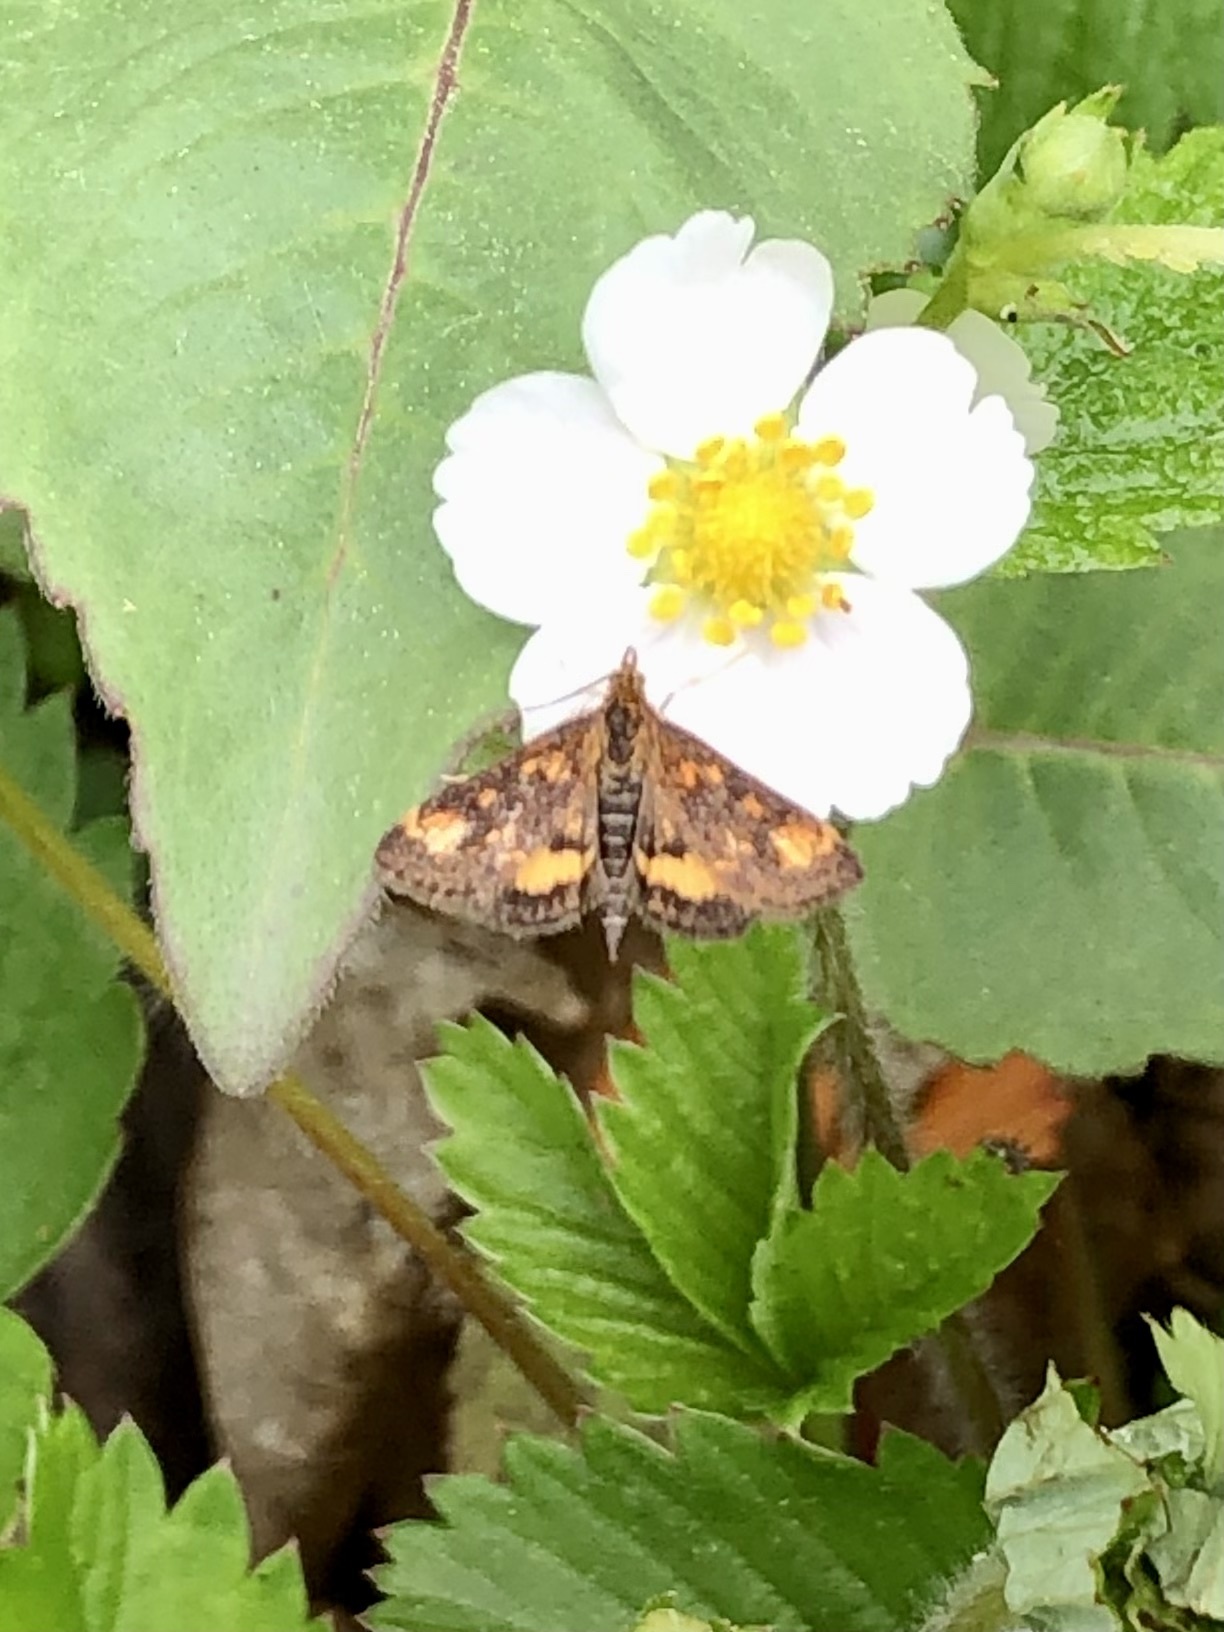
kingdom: Animalia
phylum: Arthropoda
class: Insecta
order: Lepidoptera
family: Crambidae
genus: Pyrausta
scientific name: Pyrausta orphisalis
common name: Orange mint moth
